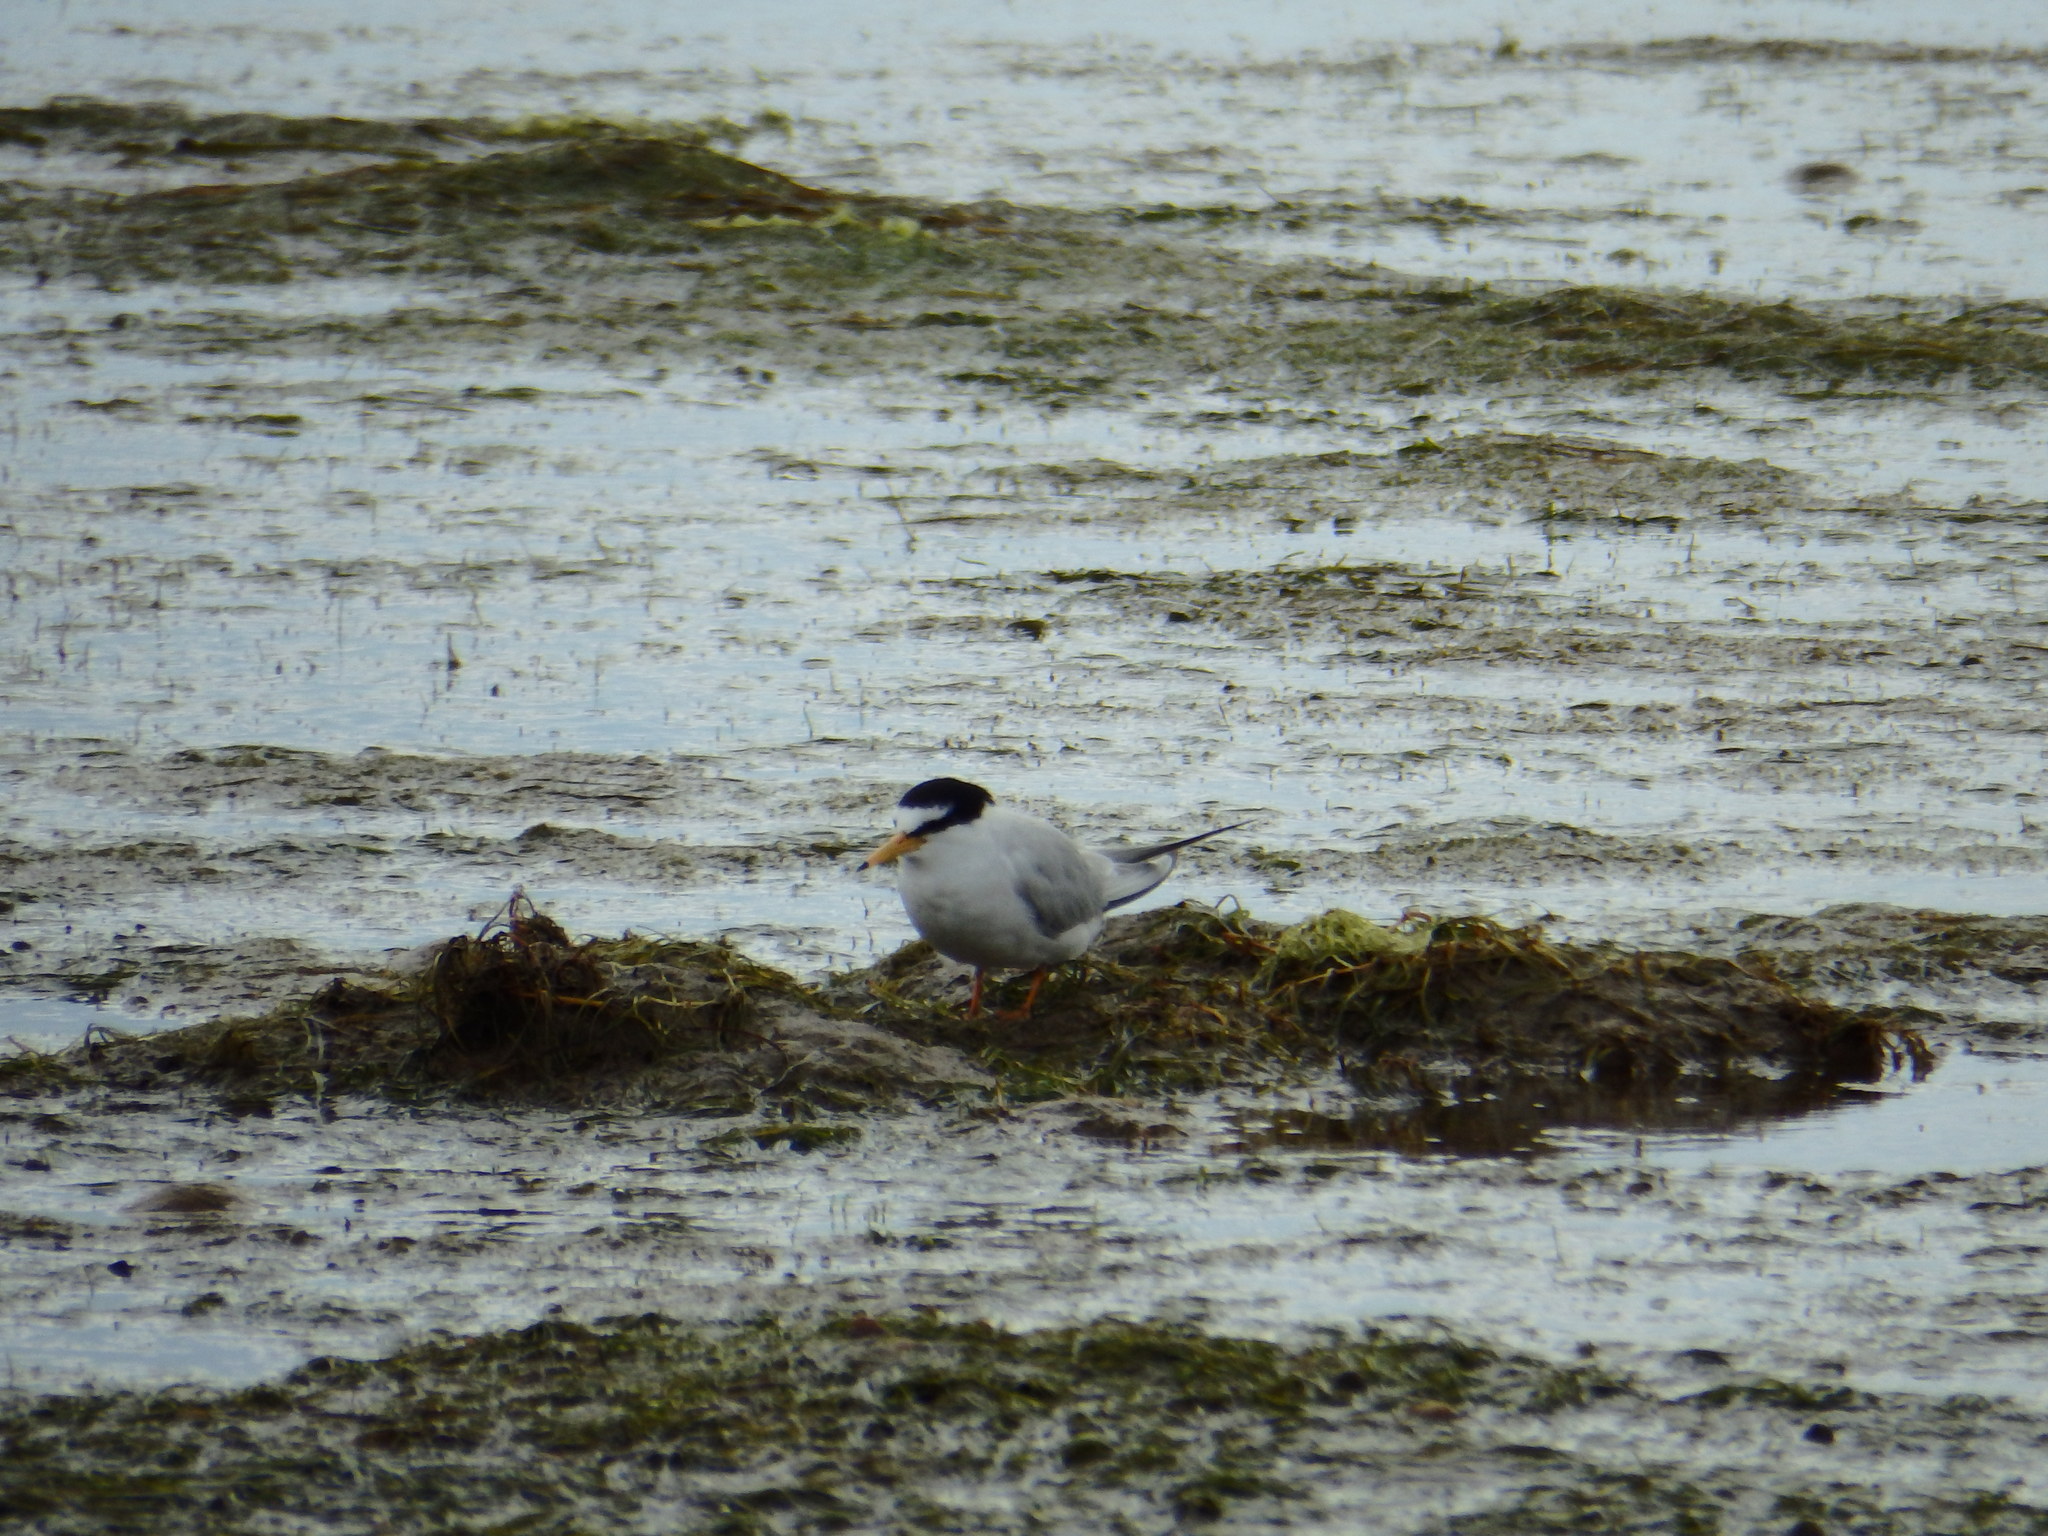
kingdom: Animalia
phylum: Chordata
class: Aves
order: Charadriiformes
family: Laridae
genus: Sternula
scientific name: Sternula albifrons
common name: Little tern
